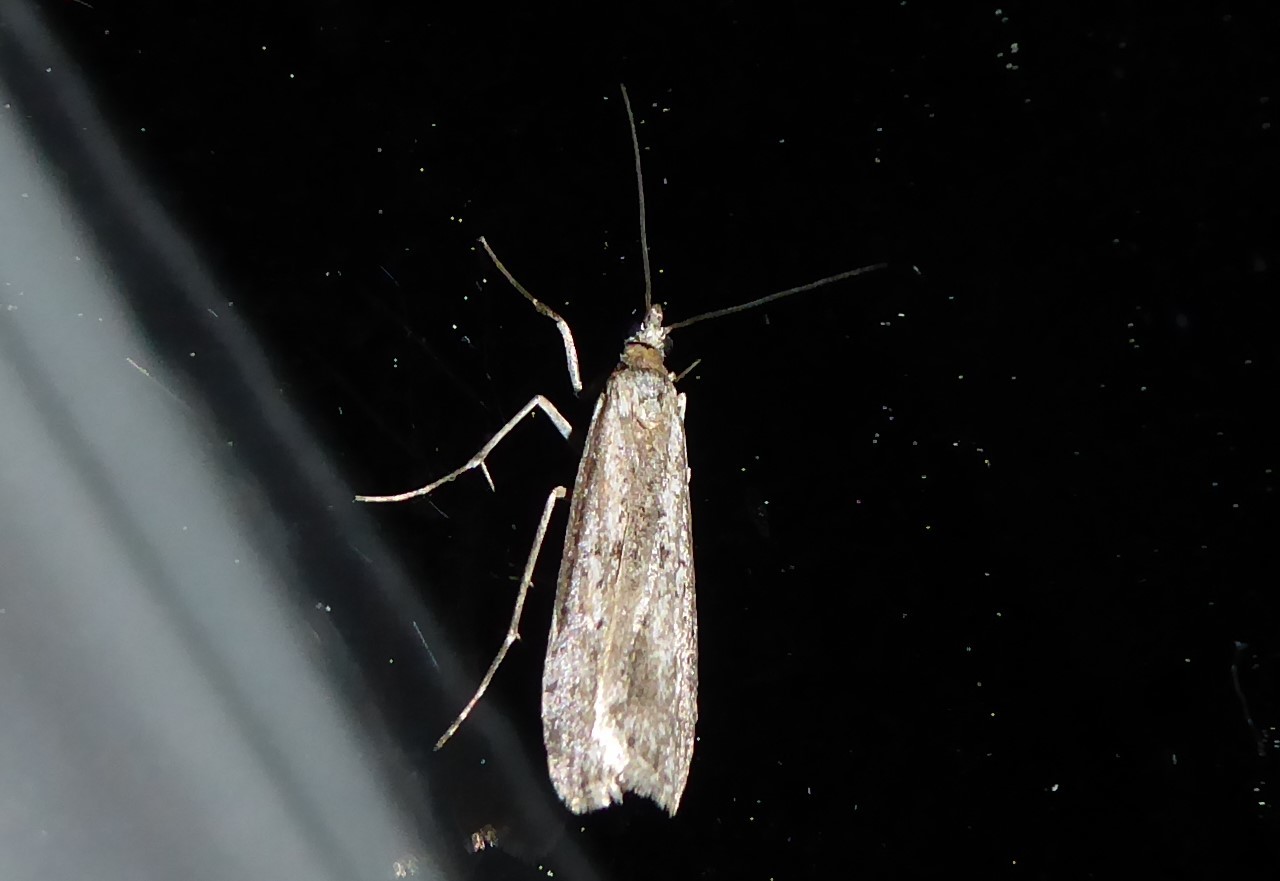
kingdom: Animalia
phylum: Arthropoda
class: Insecta
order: Lepidoptera
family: Crambidae
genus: Eudonia
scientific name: Eudonia leptalea
